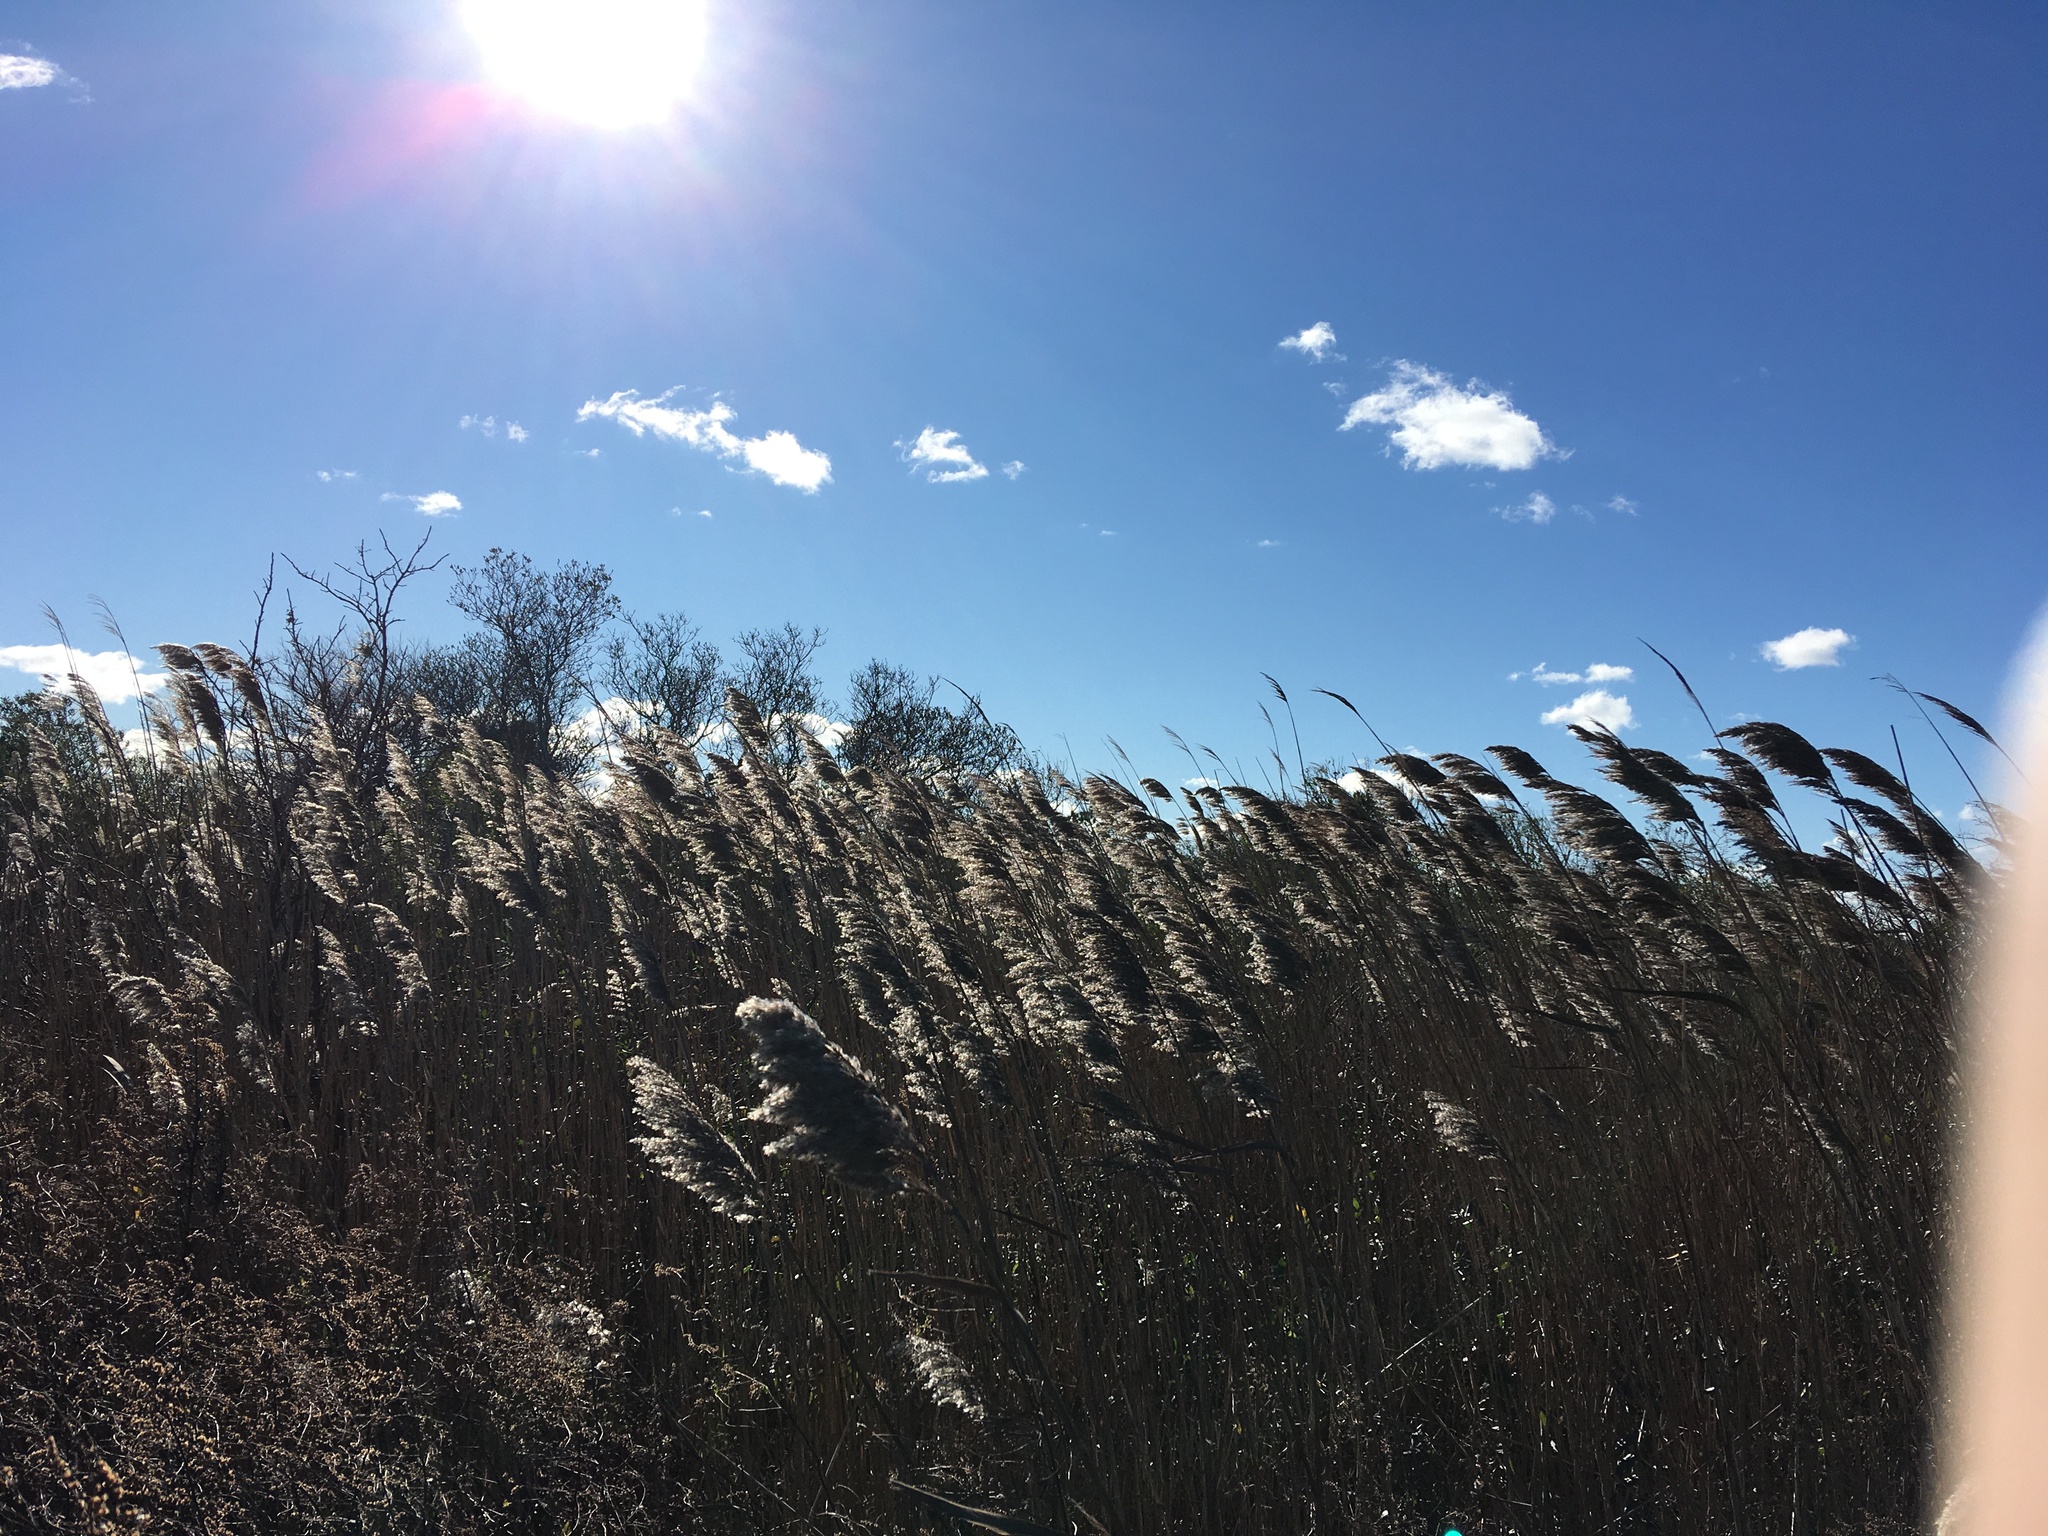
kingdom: Plantae
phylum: Tracheophyta
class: Liliopsida
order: Poales
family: Poaceae
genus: Phragmites
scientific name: Phragmites australis
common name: Common reed
